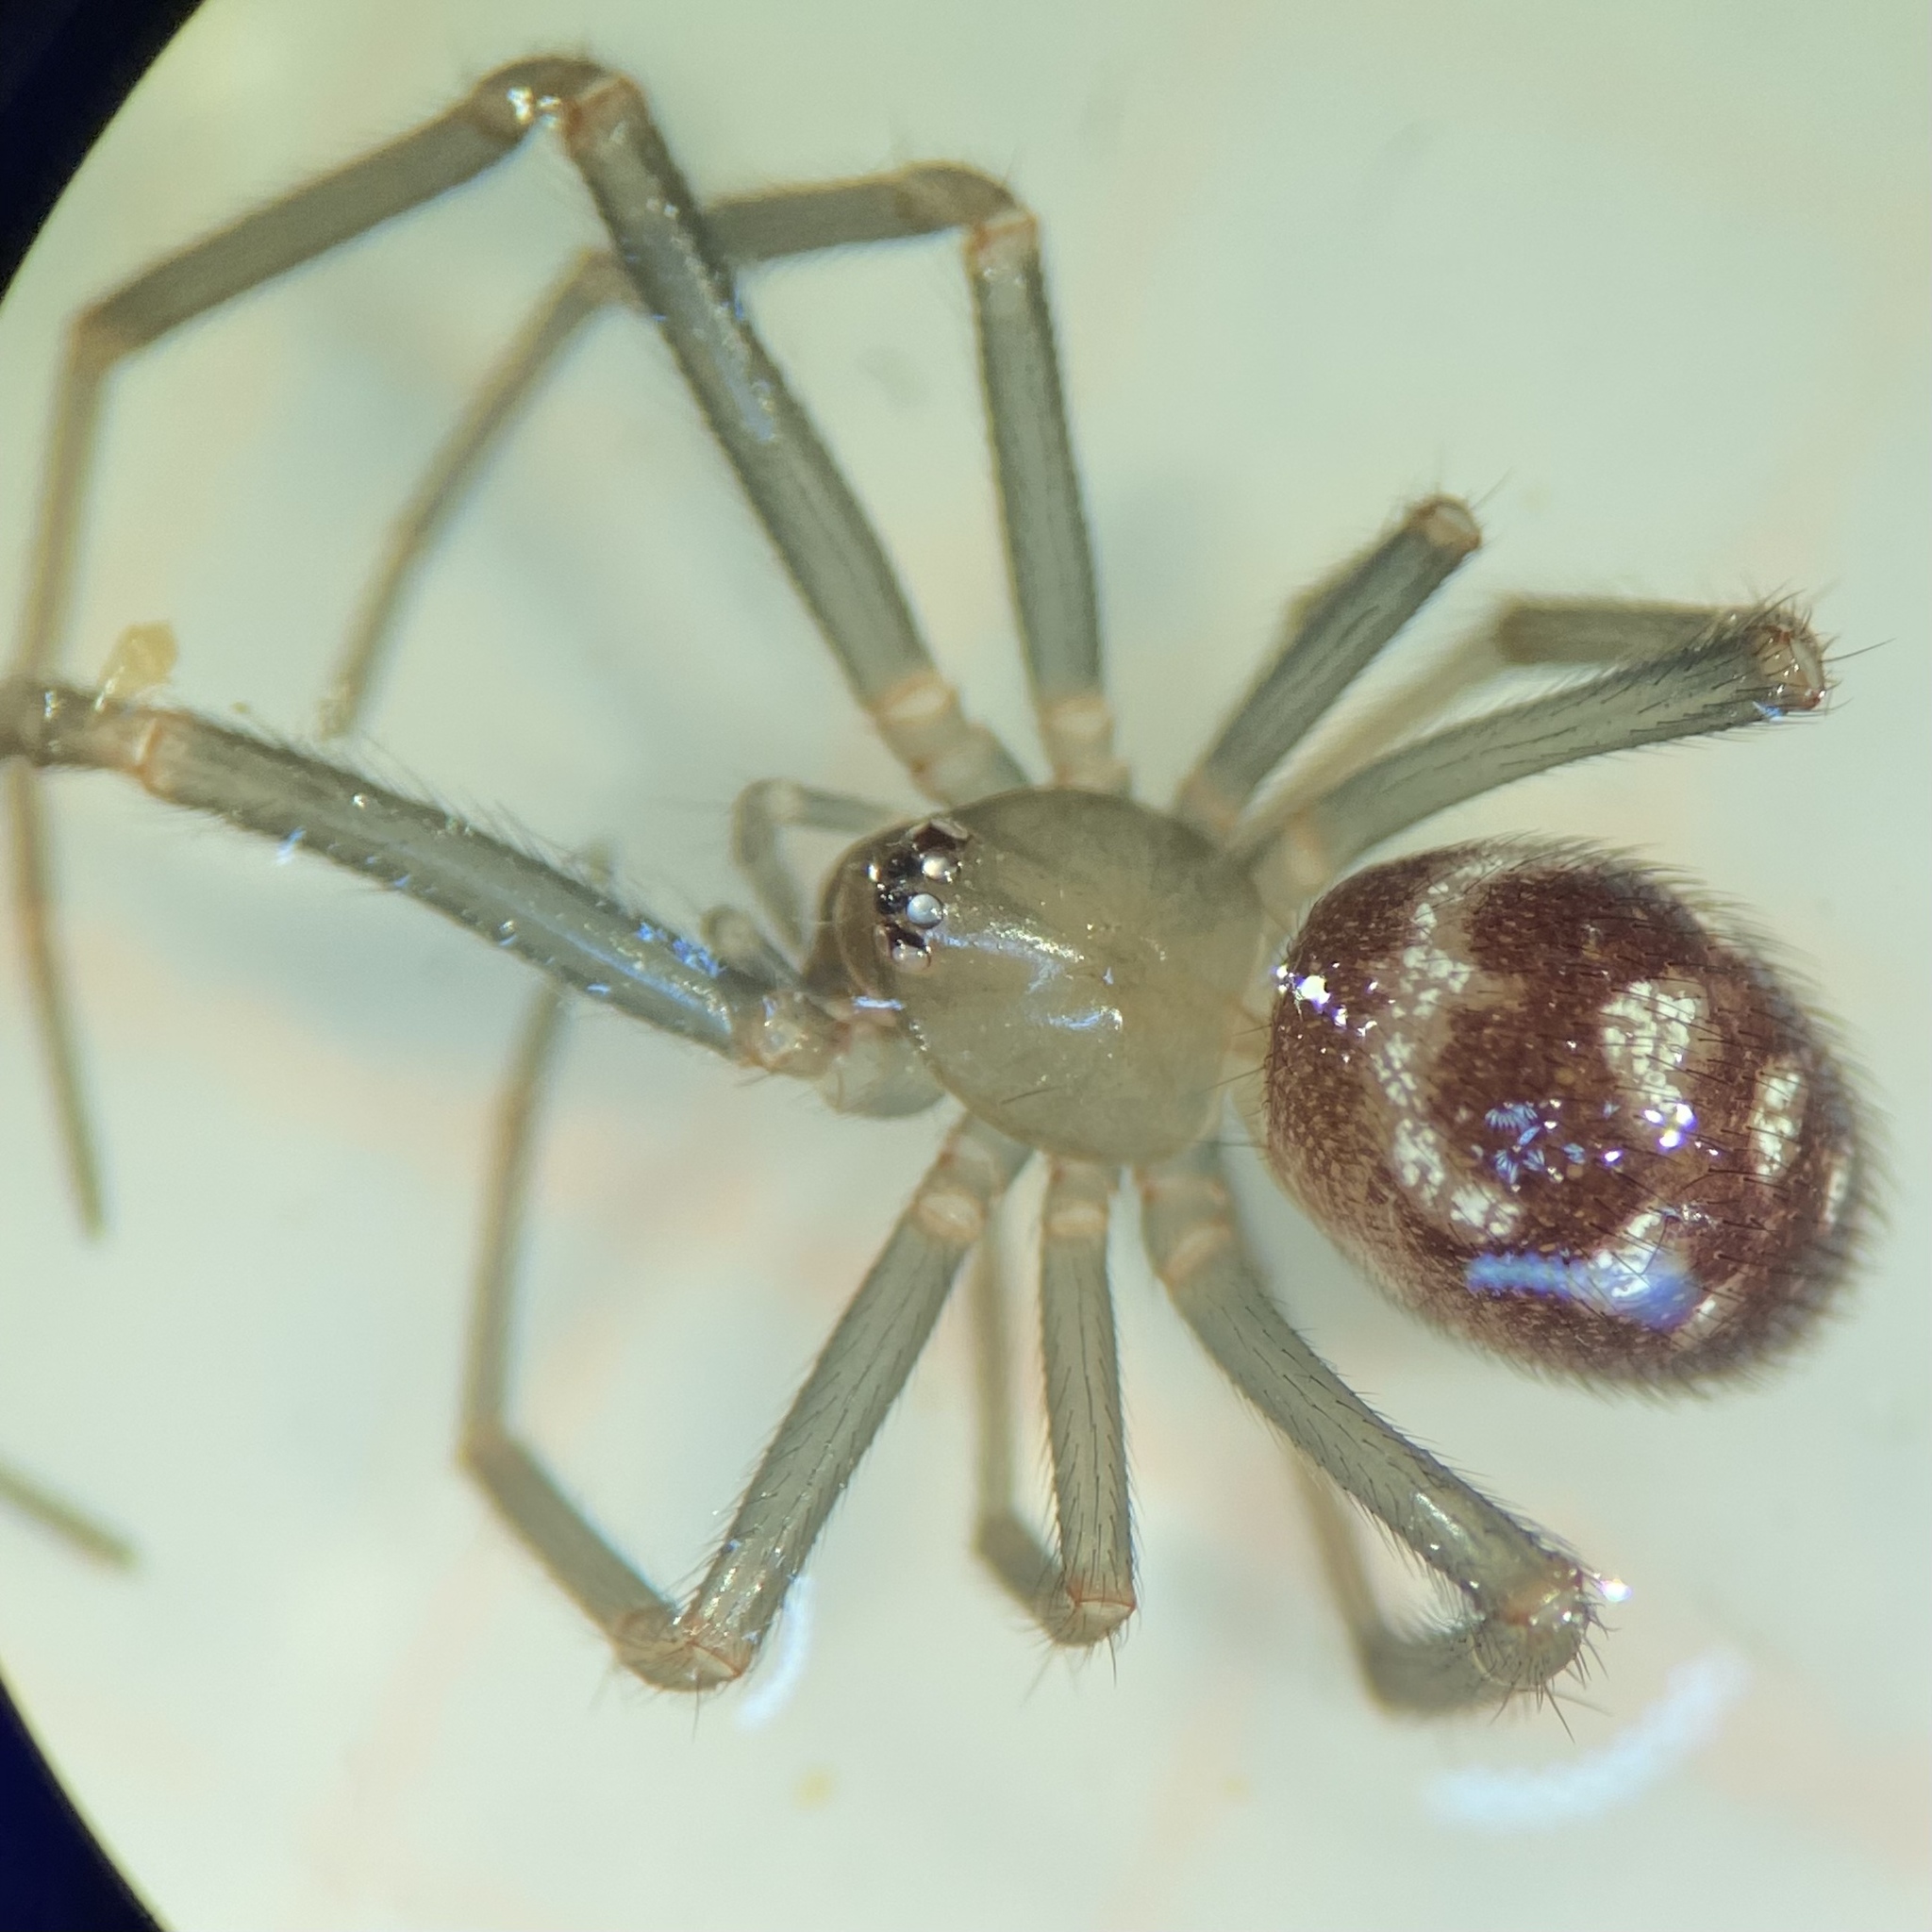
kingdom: Animalia
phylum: Arthropoda
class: Arachnida
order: Araneae
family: Theridiidae
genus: Steatoda
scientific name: Steatoda grossa
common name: False black widow
